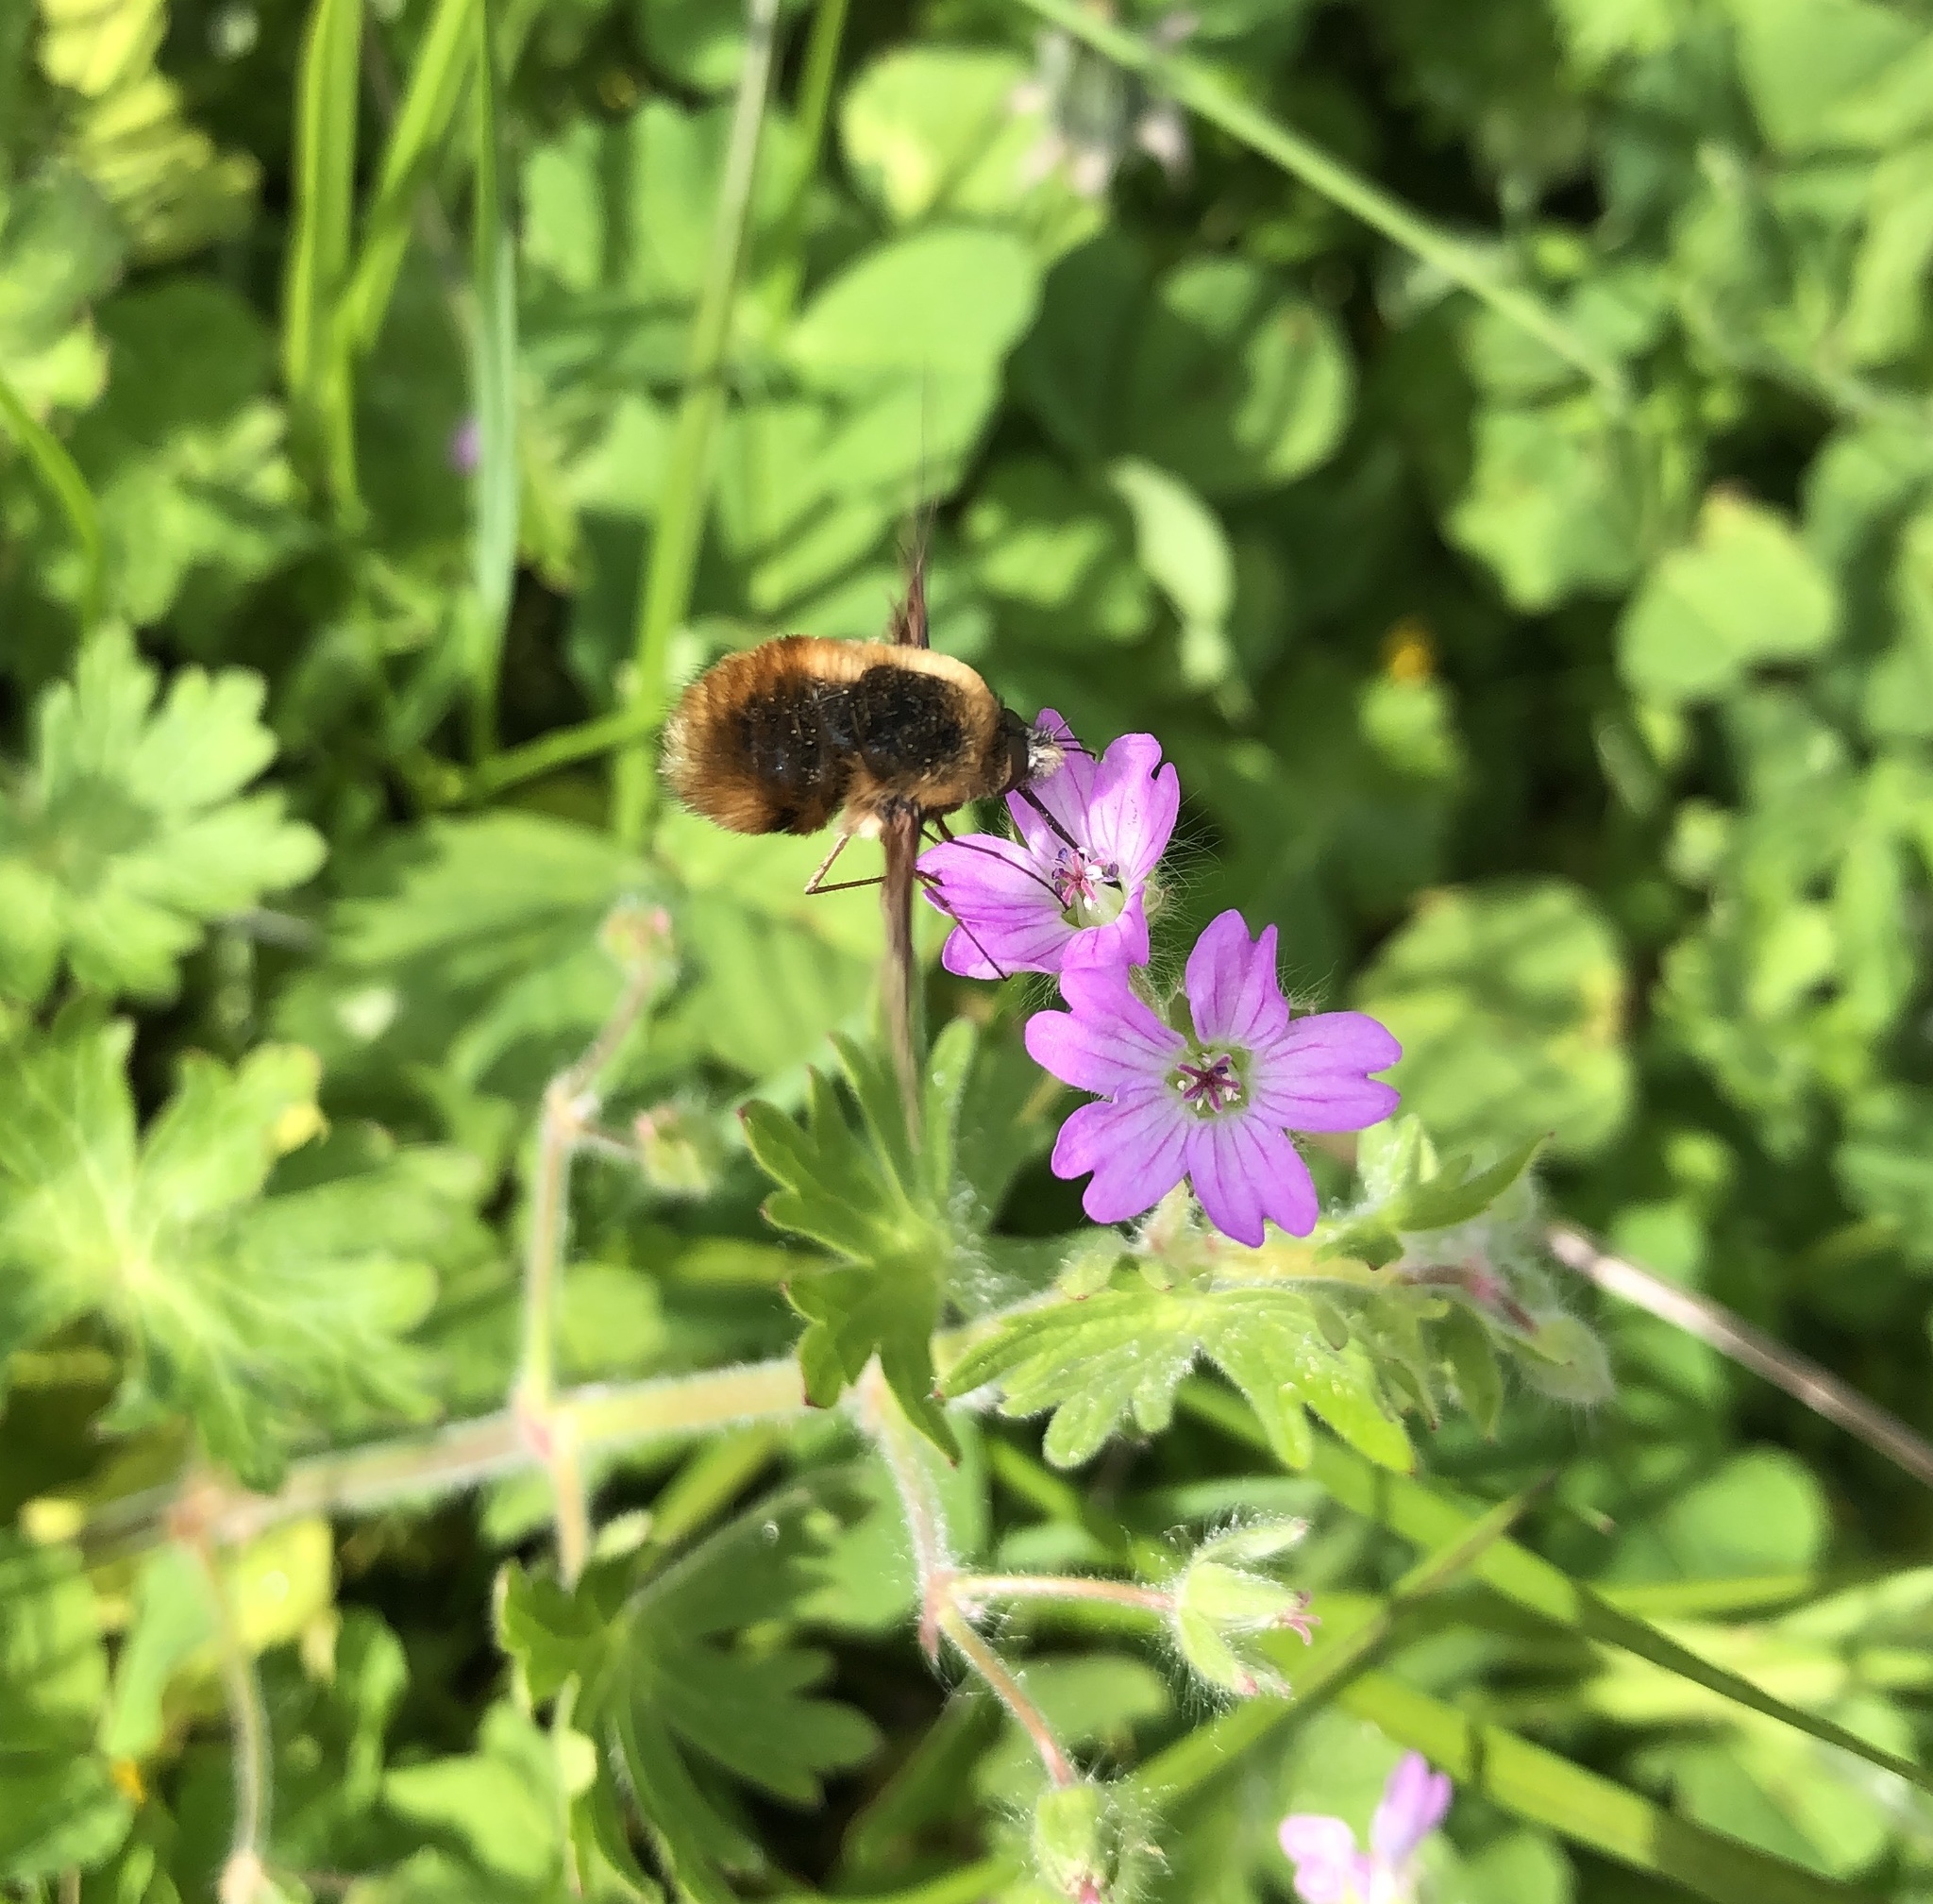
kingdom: Animalia
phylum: Arthropoda
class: Insecta
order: Diptera
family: Bombyliidae
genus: Bombylius
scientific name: Bombylius major
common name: Bee fly
